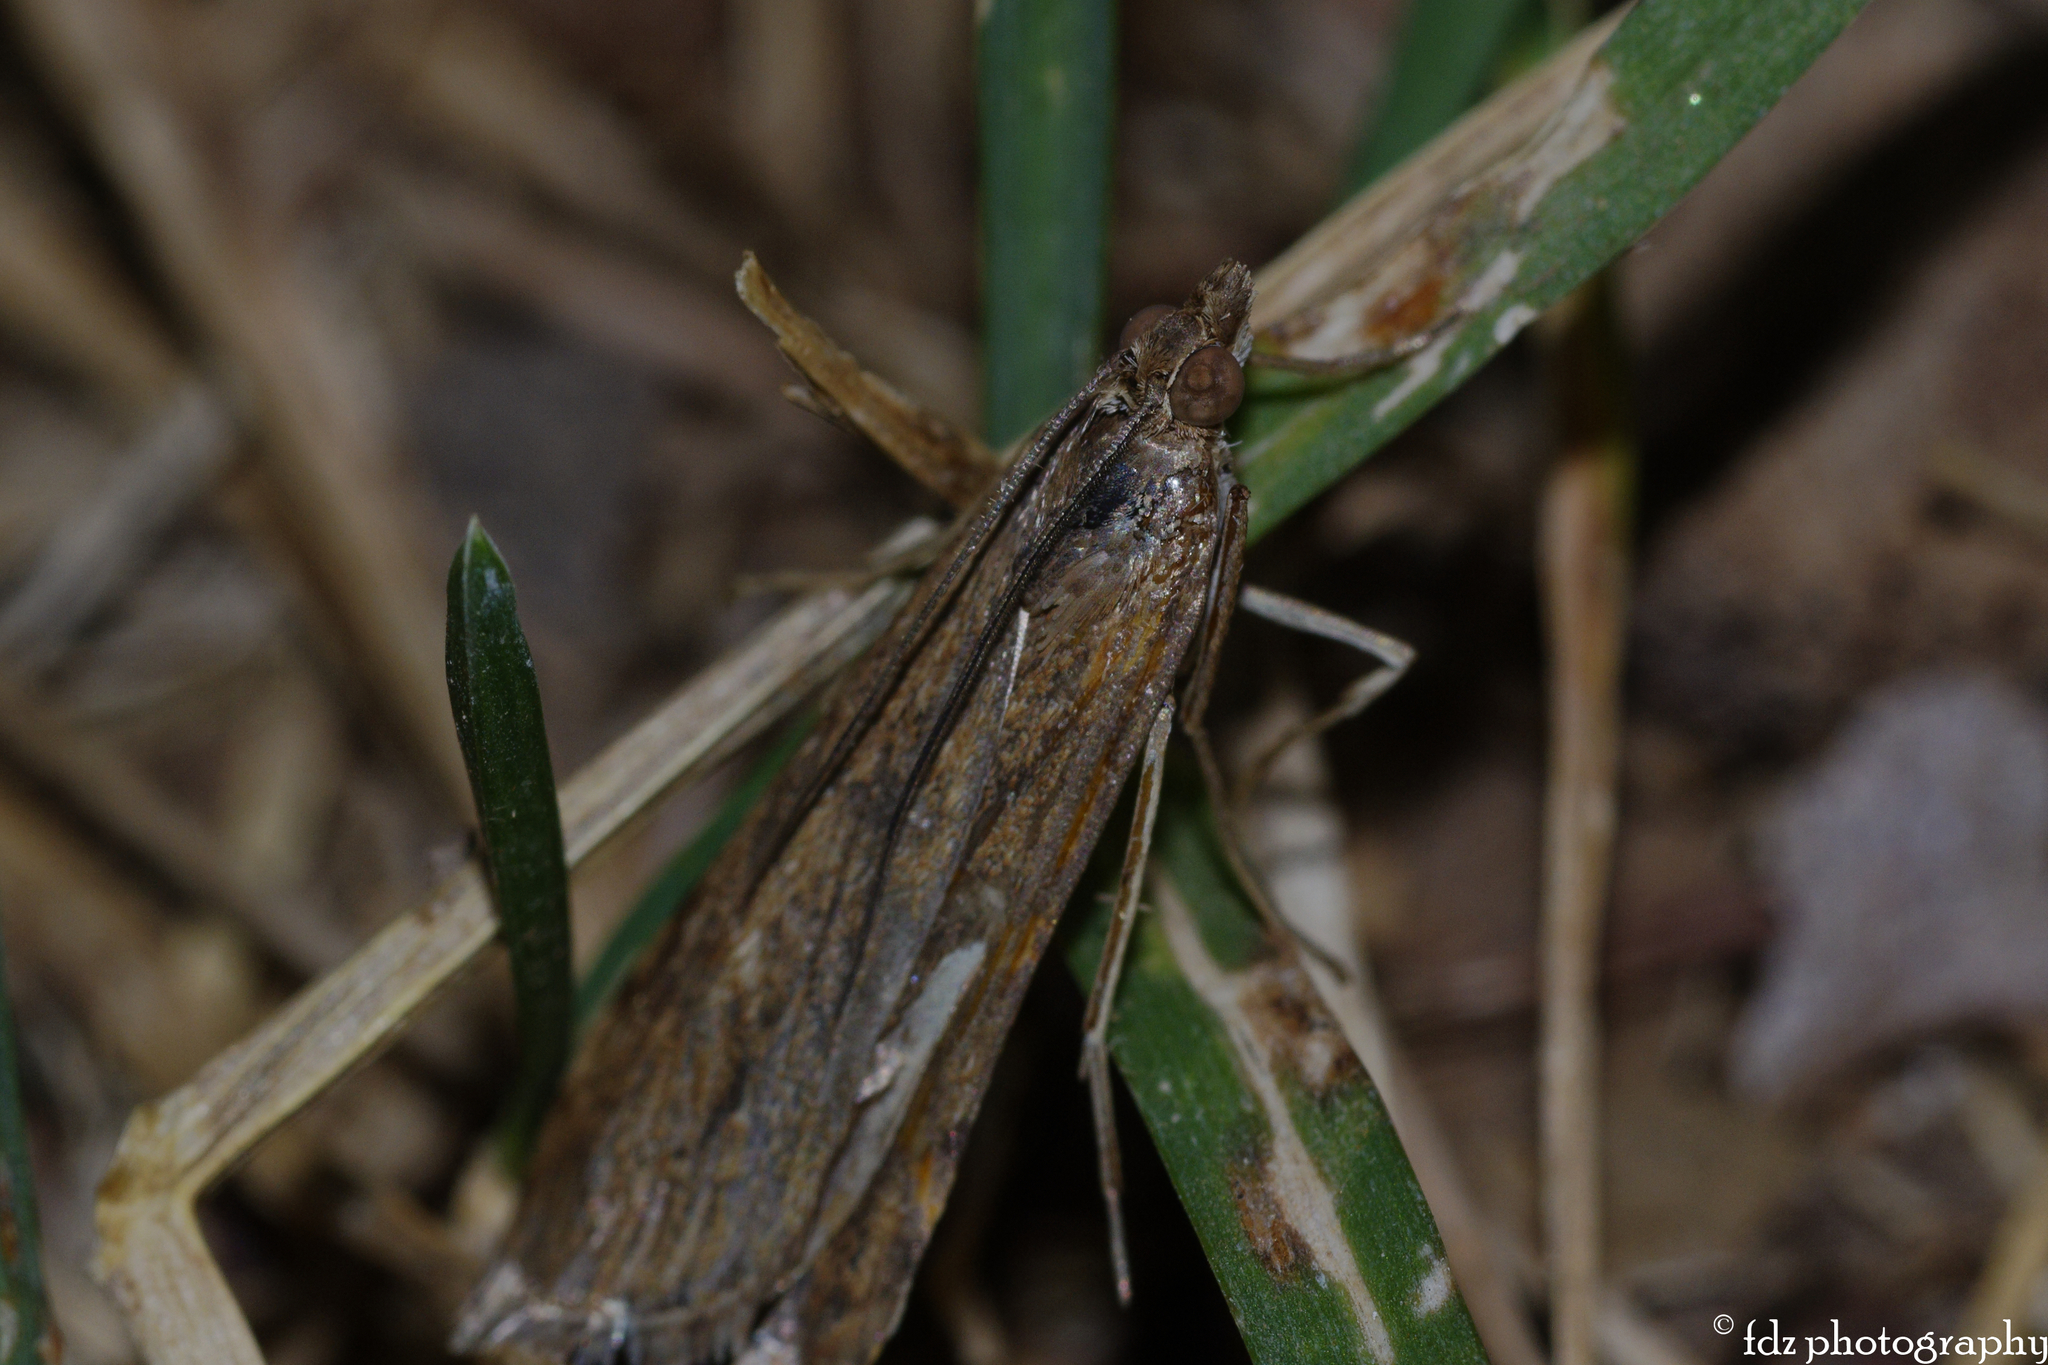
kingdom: Animalia
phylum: Arthropoda
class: Insecta
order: Lepidoptera
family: Crambidae
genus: Nomophila
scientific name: Nomophila noctuella
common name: Rush veneer
